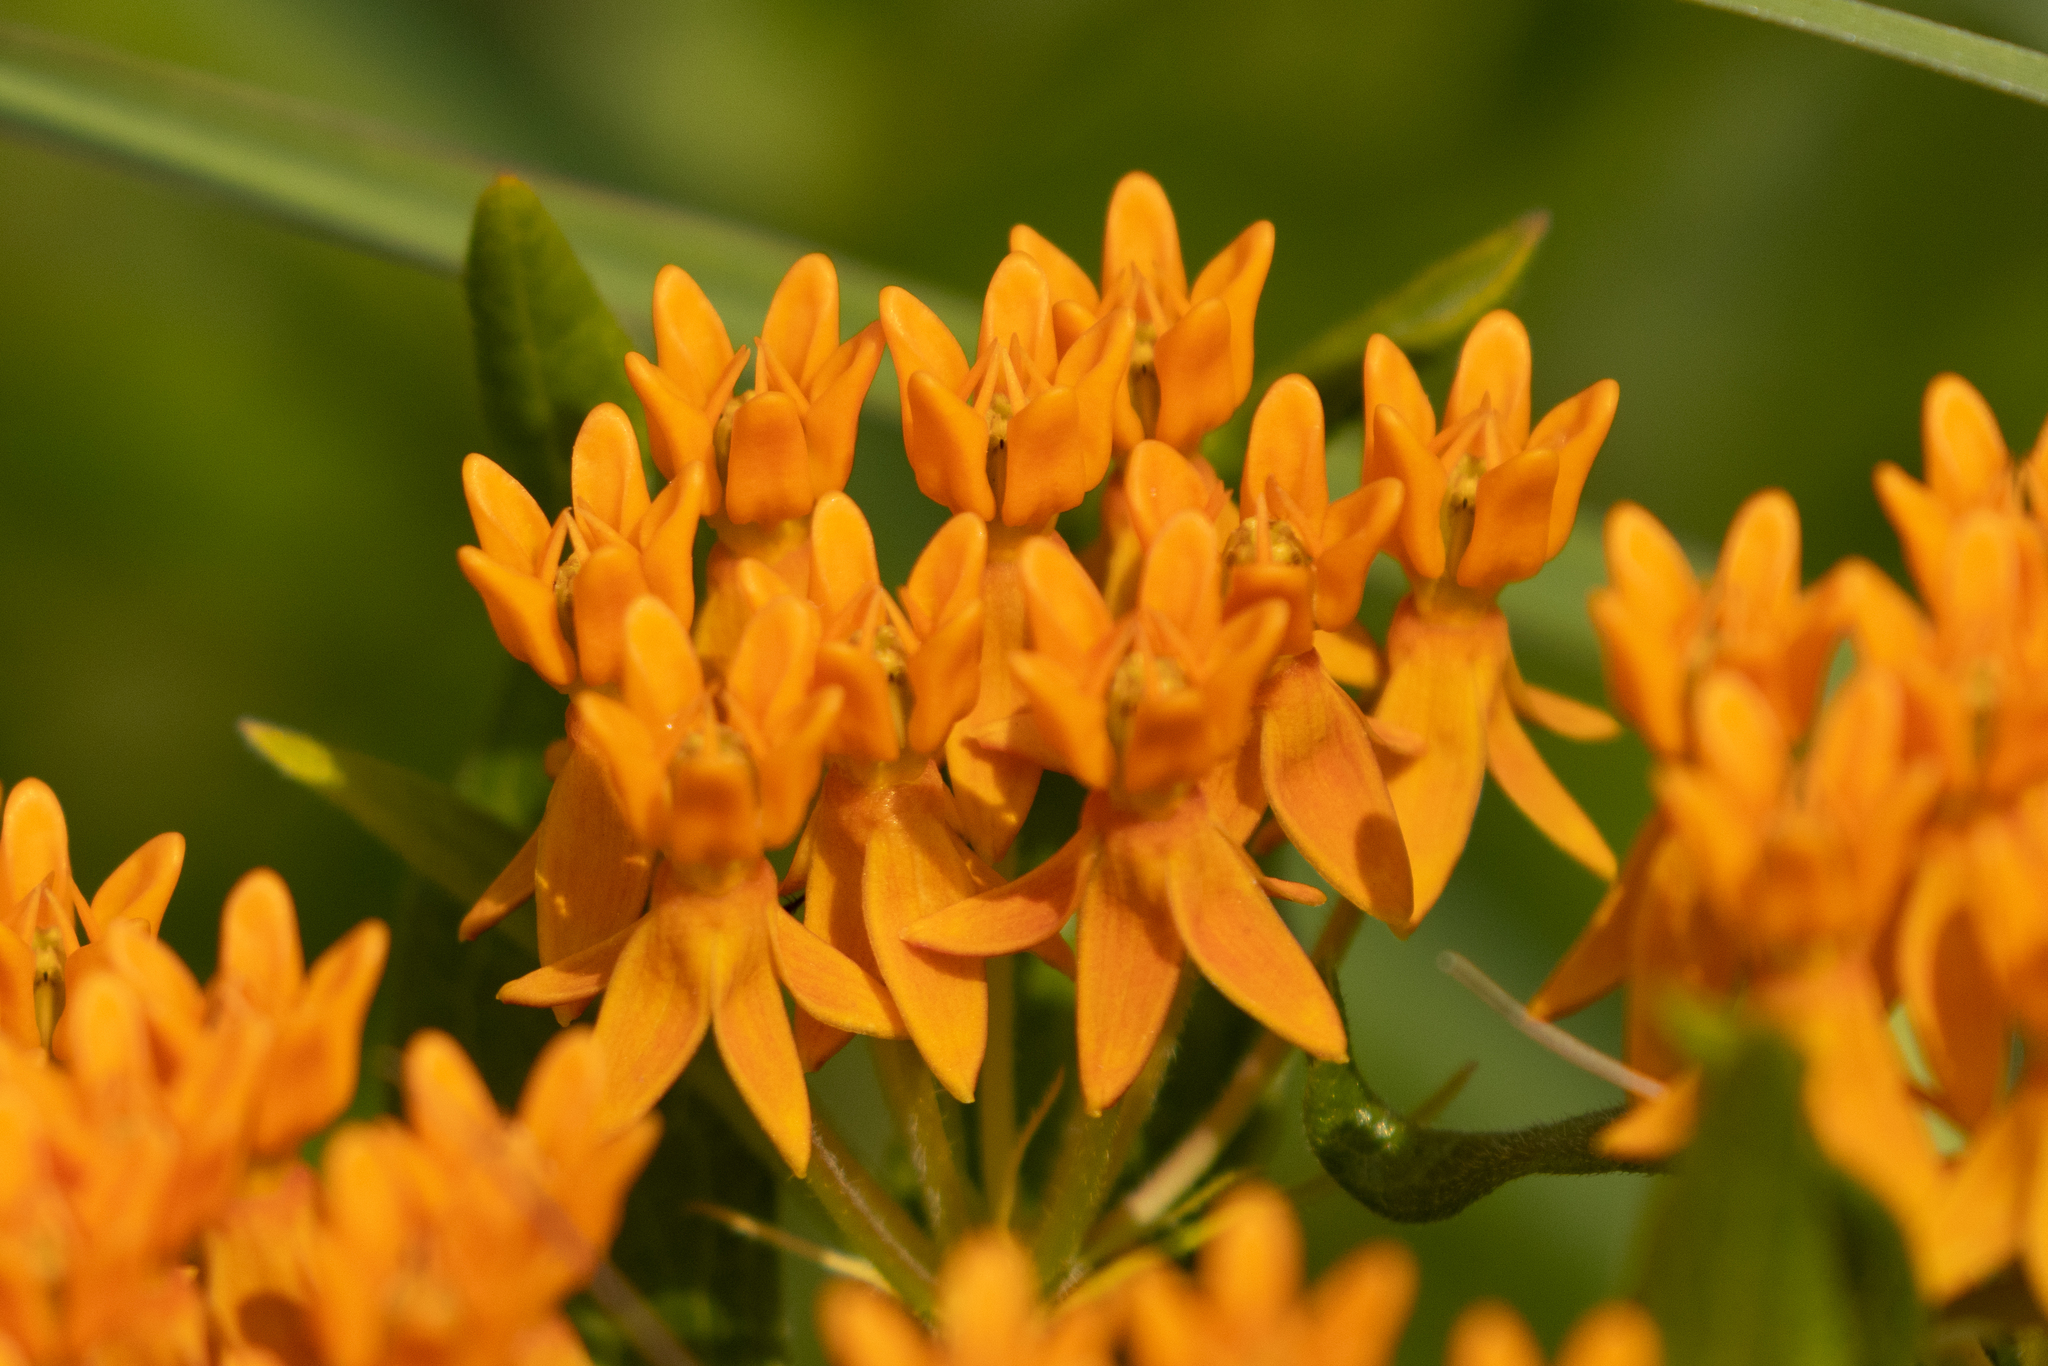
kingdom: Plantae
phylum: Tracheophyta
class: Magnoliopsida
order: Gentianales
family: Apocynaceae
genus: Asclepias
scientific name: Asclepias tuberosa
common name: Butterfly milkweed
